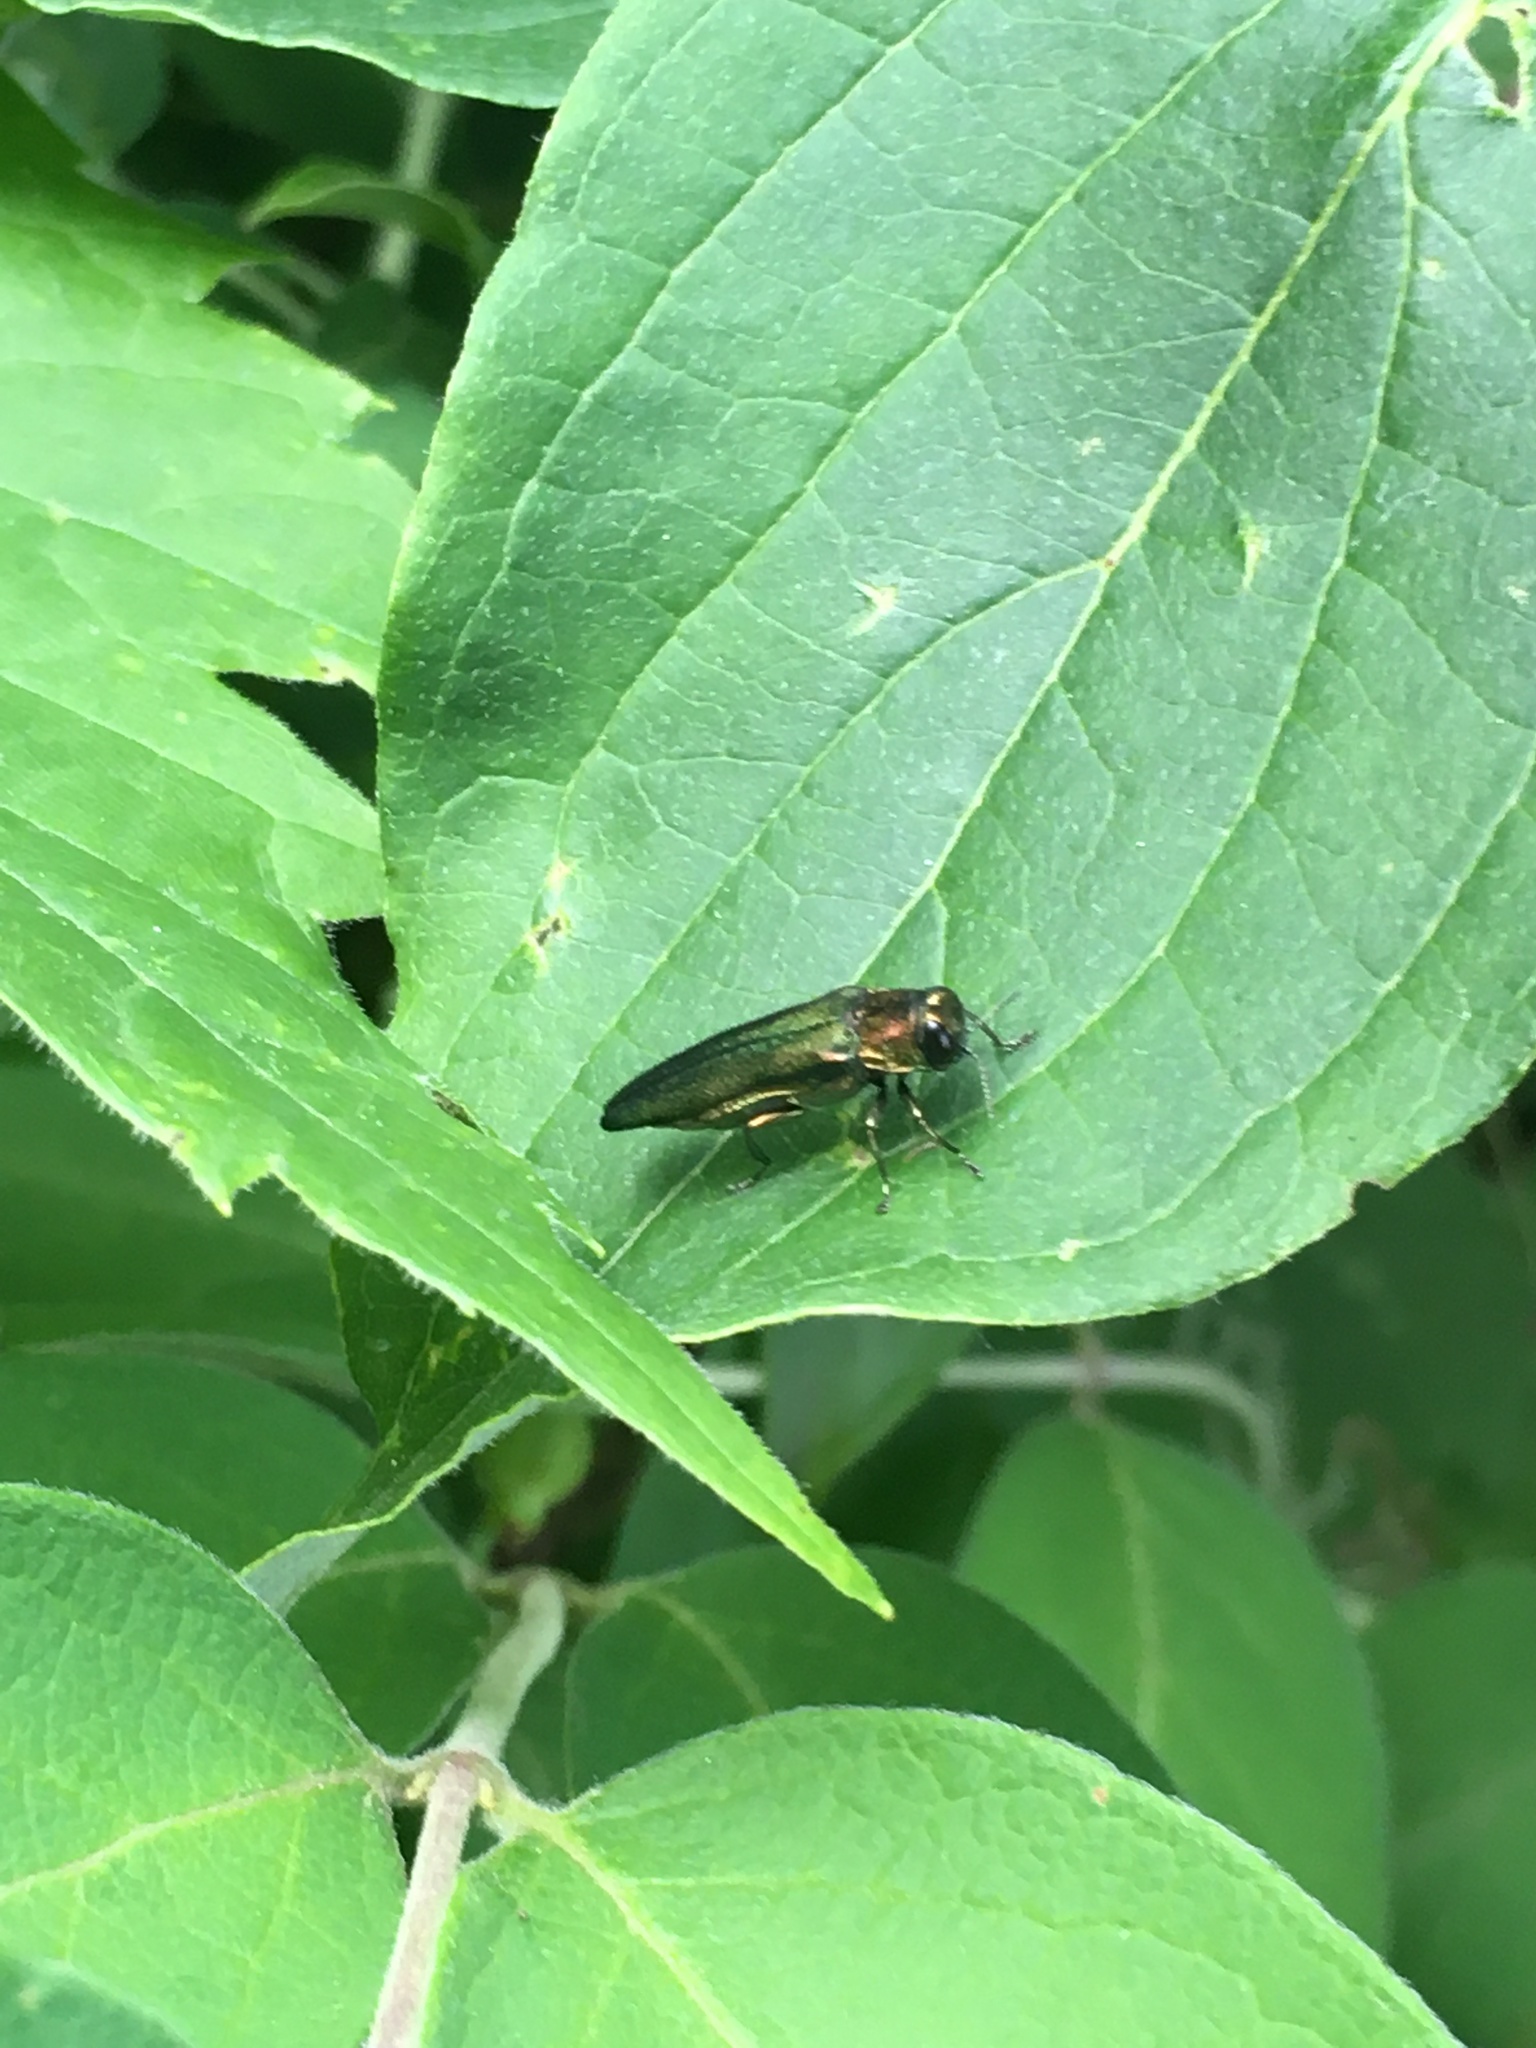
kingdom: Animalia
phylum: Arthropoda
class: Insecta
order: Coleoptera
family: Buprestidae
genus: Agrilus
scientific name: Agrilus planipennis
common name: Emerald ash borer
